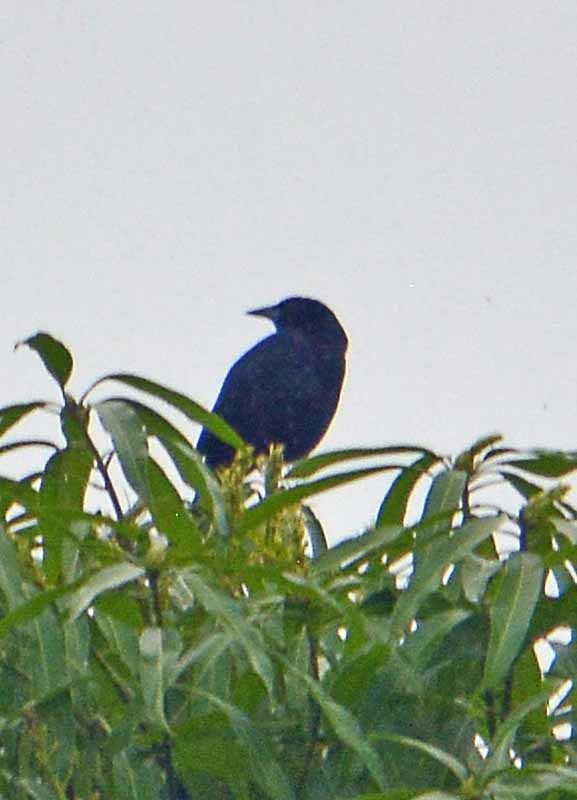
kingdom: Animalia
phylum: Chordata
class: Aves
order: Passeriformes
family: Icteridae
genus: Dives
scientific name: Dives dives
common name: Melodious blackbird
